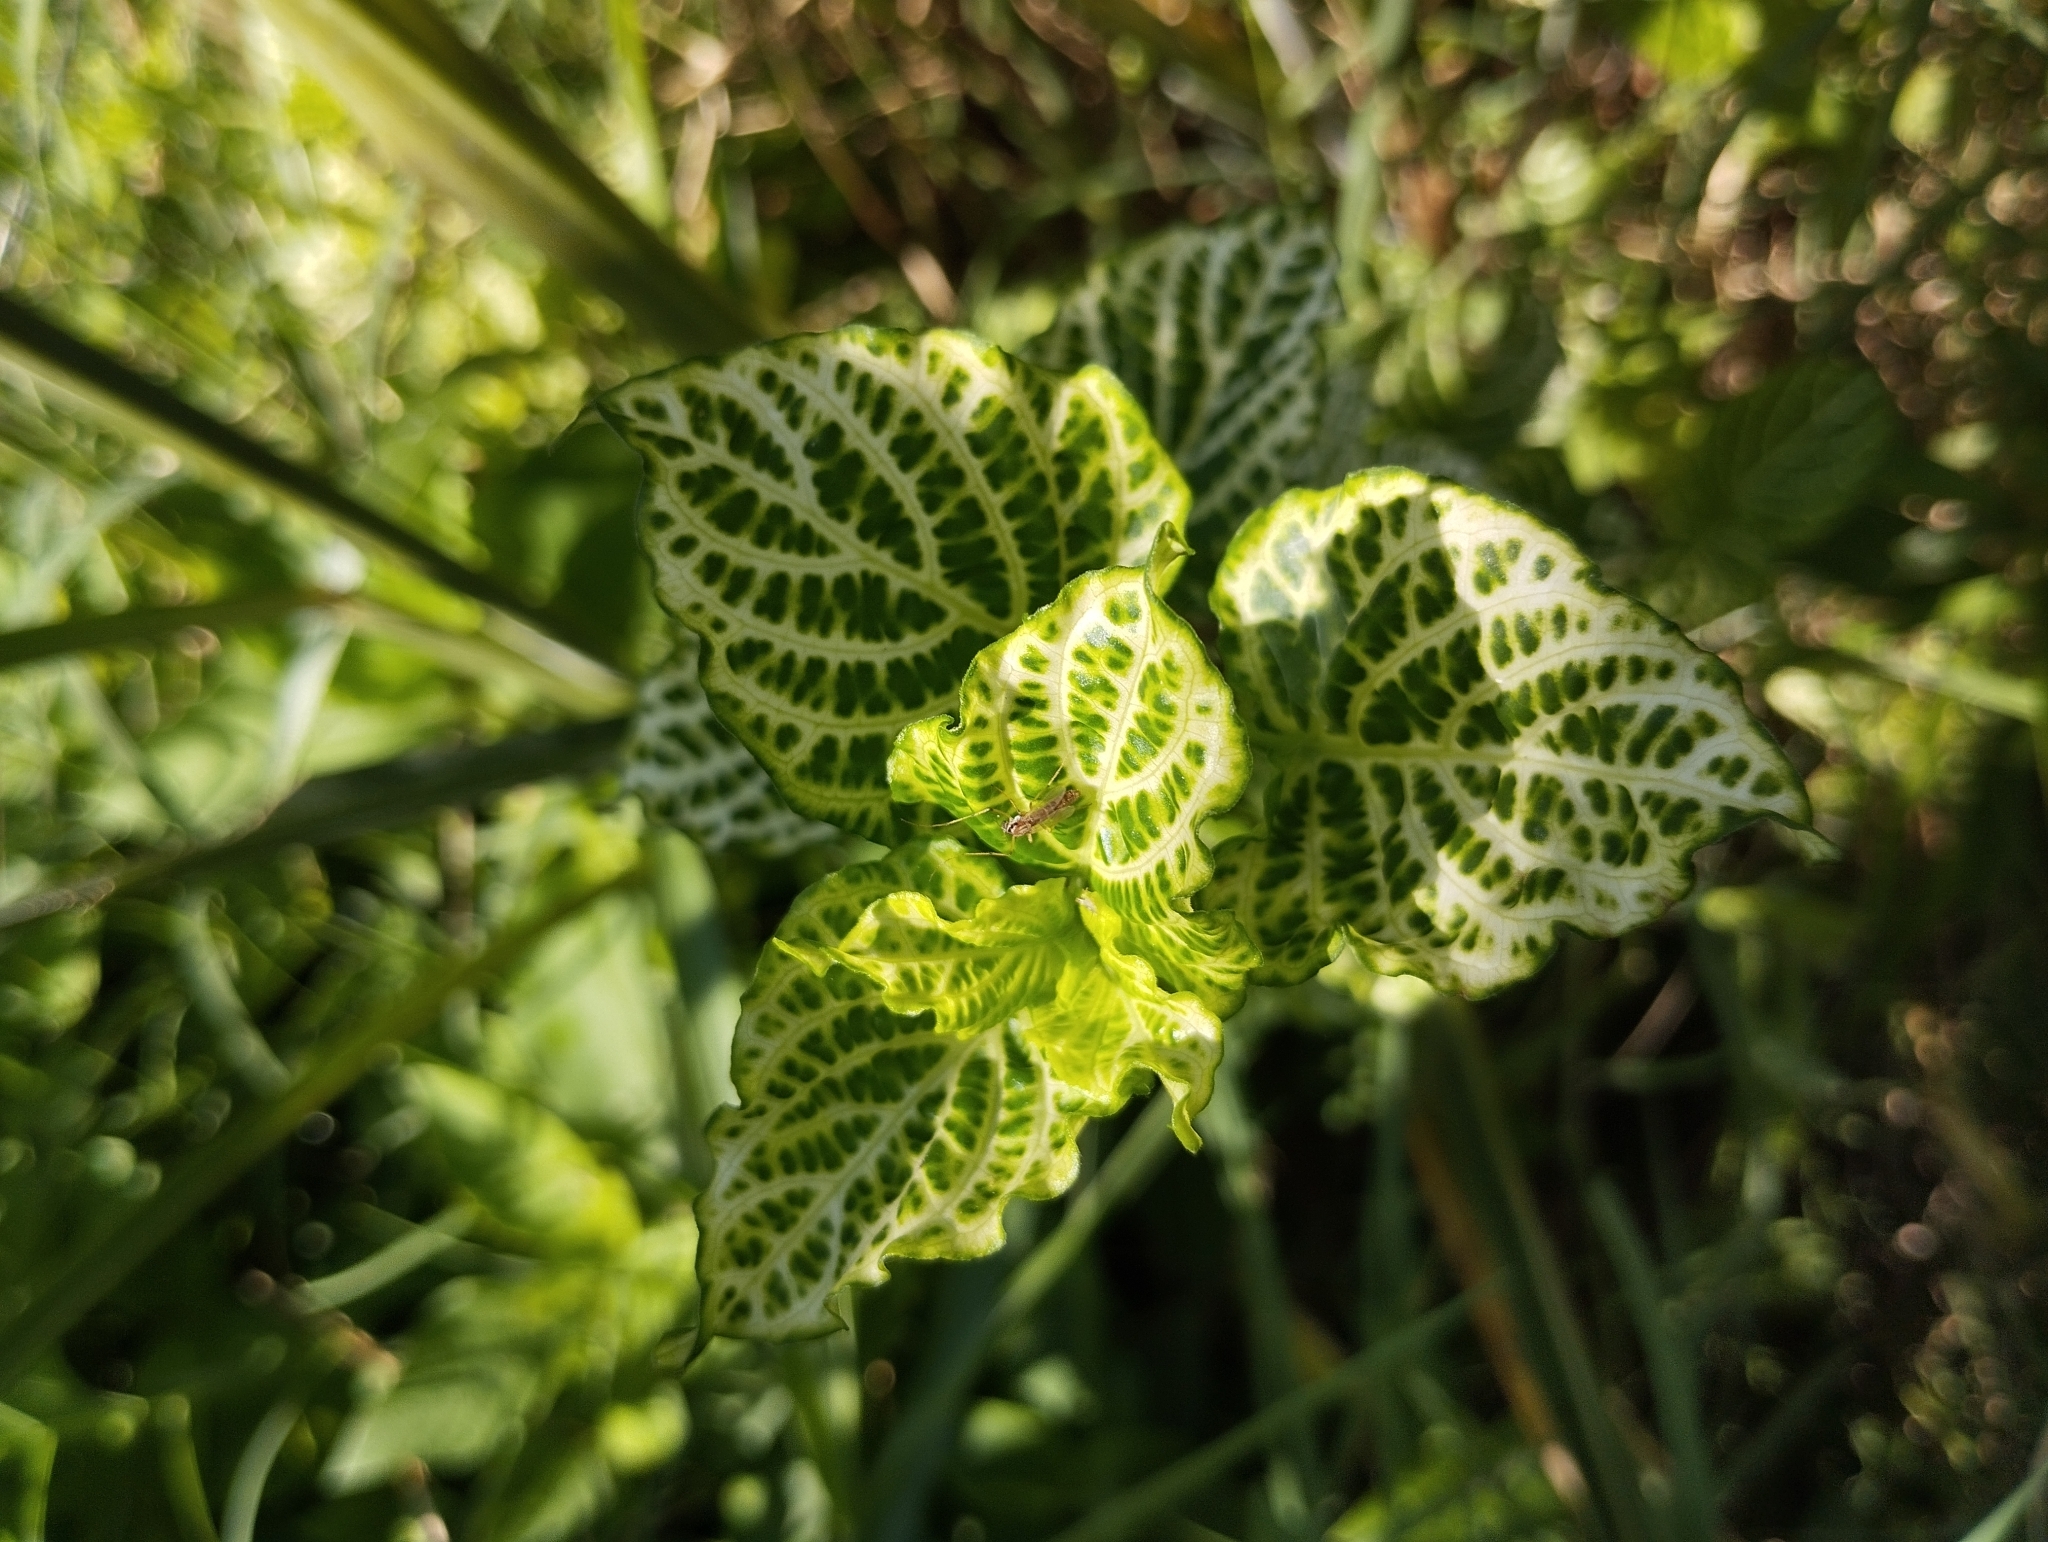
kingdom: Plantae
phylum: Tracheophyta
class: Magnoliopsida
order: Lamiales
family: Acanthaceae
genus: Asystasia
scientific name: Asystasia gangetica
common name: Chinese violet
